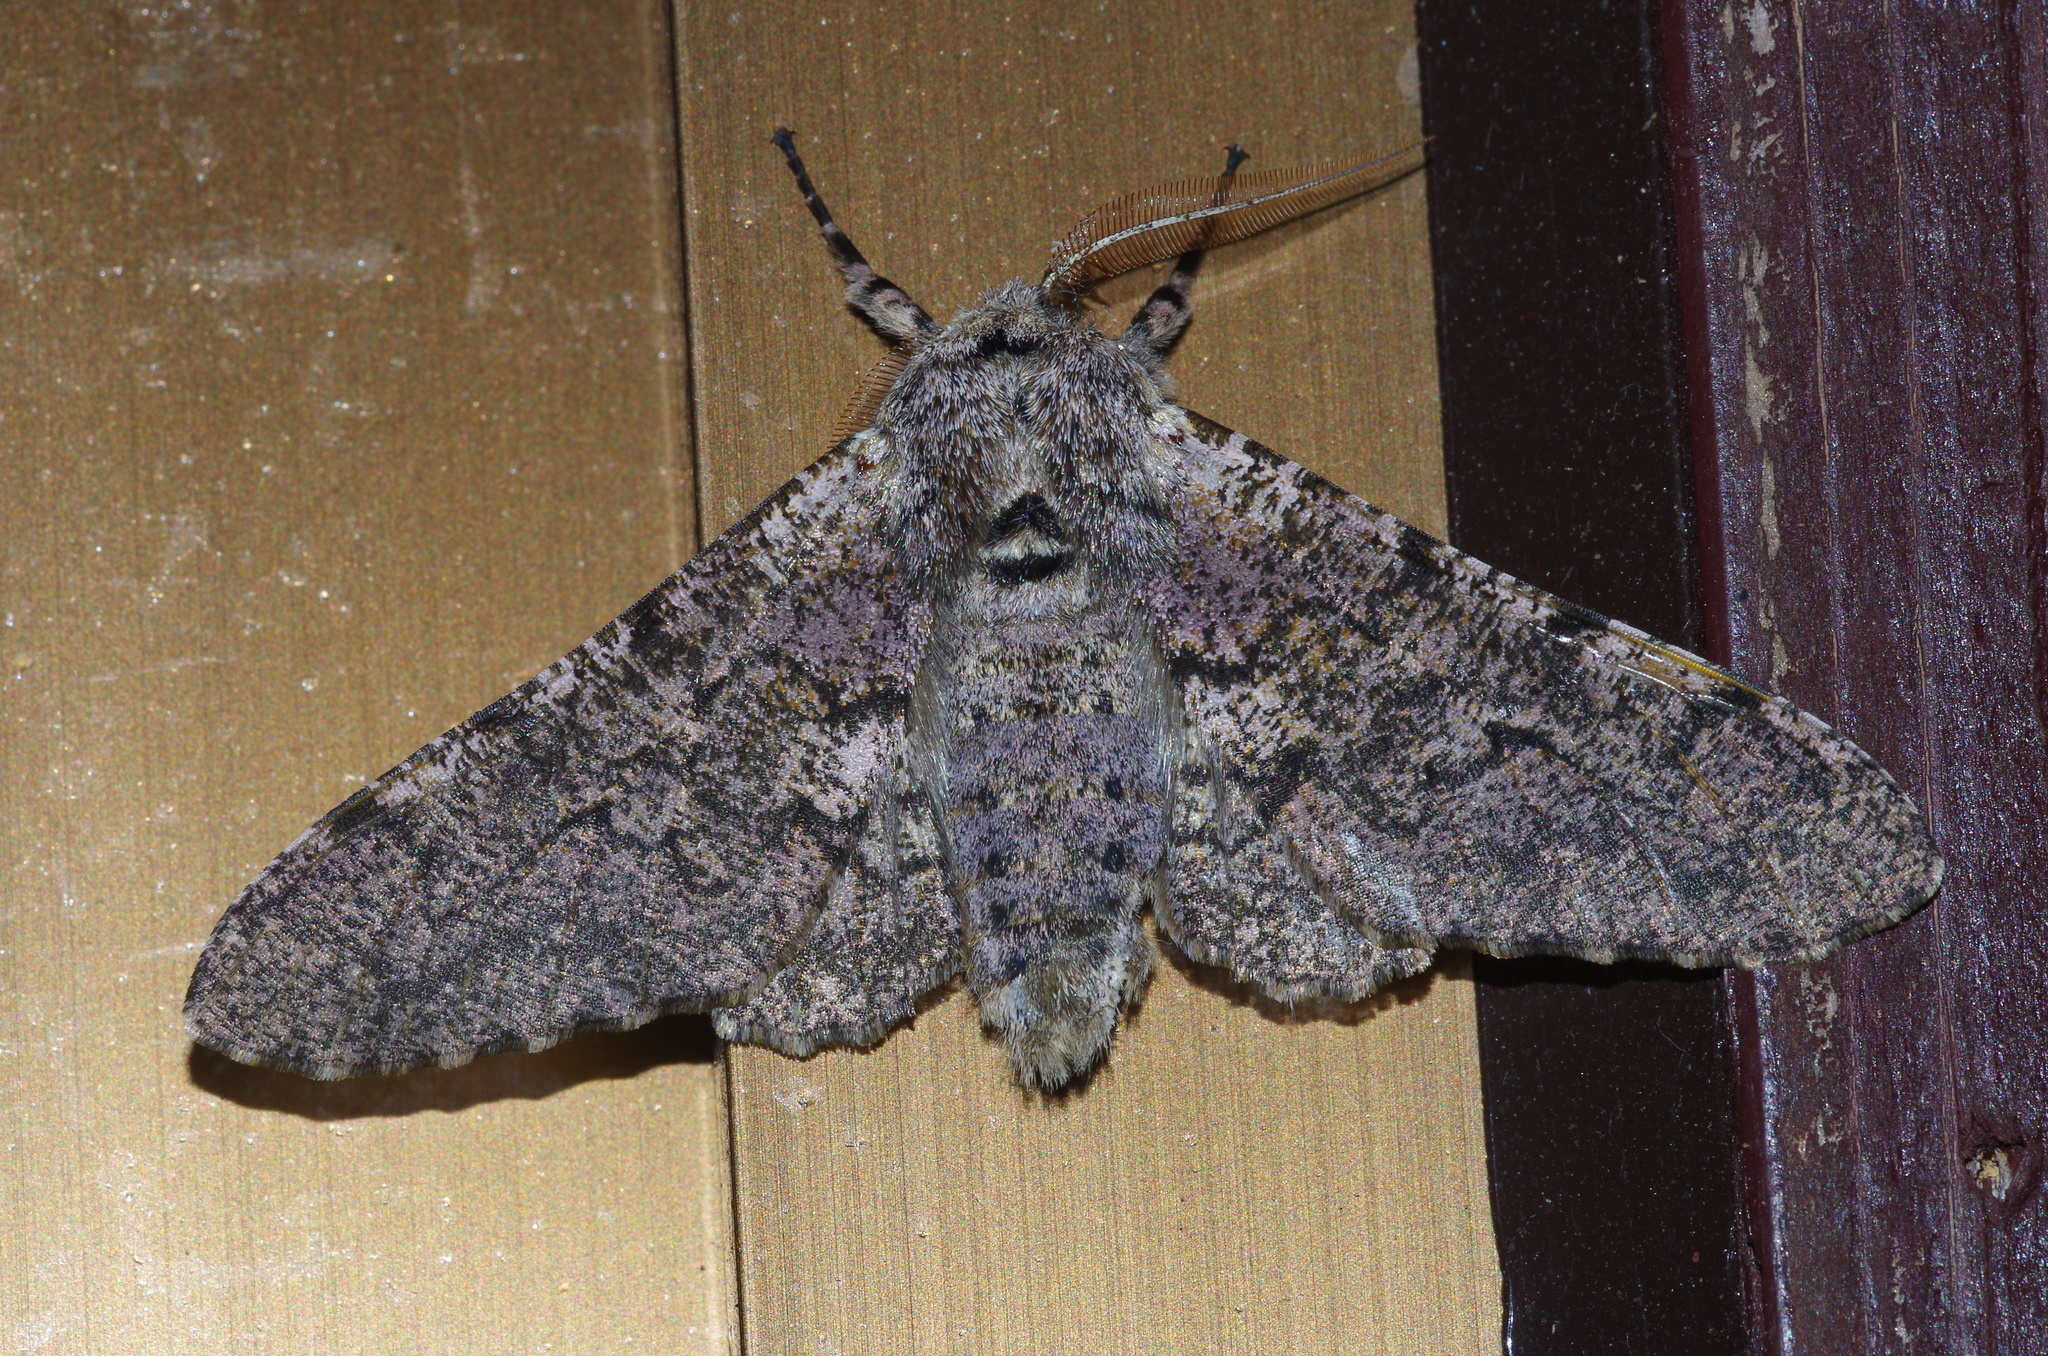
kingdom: Animalia
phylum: Arthropoda
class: Insecta
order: Lepidoptera
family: Geometridae
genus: Biston
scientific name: Biston robustum
